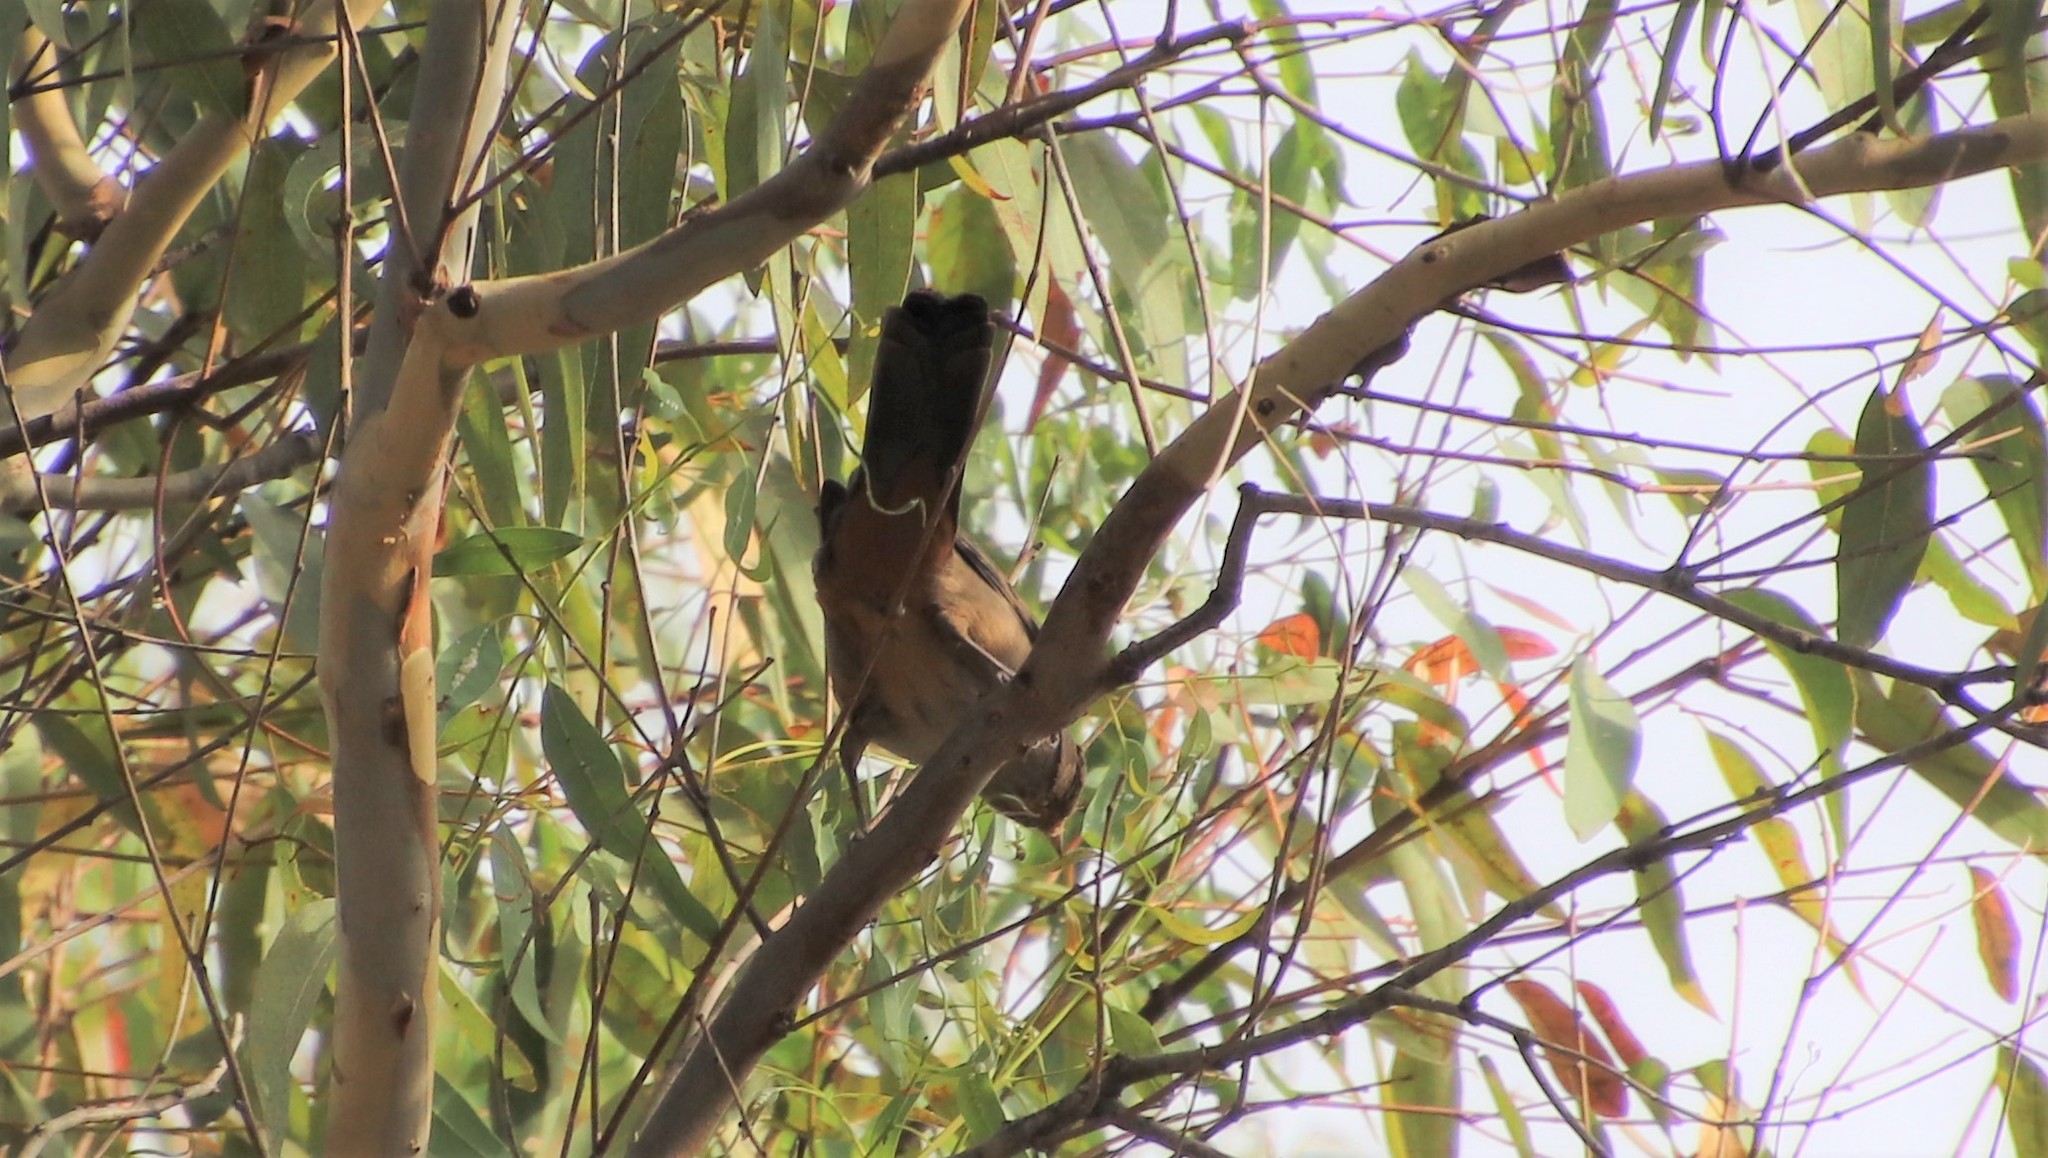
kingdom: Animalia
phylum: Chordata
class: Aves
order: Passeriformes
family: Passerellidae
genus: Melozone
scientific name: Melozone crissalis
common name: California towhee
